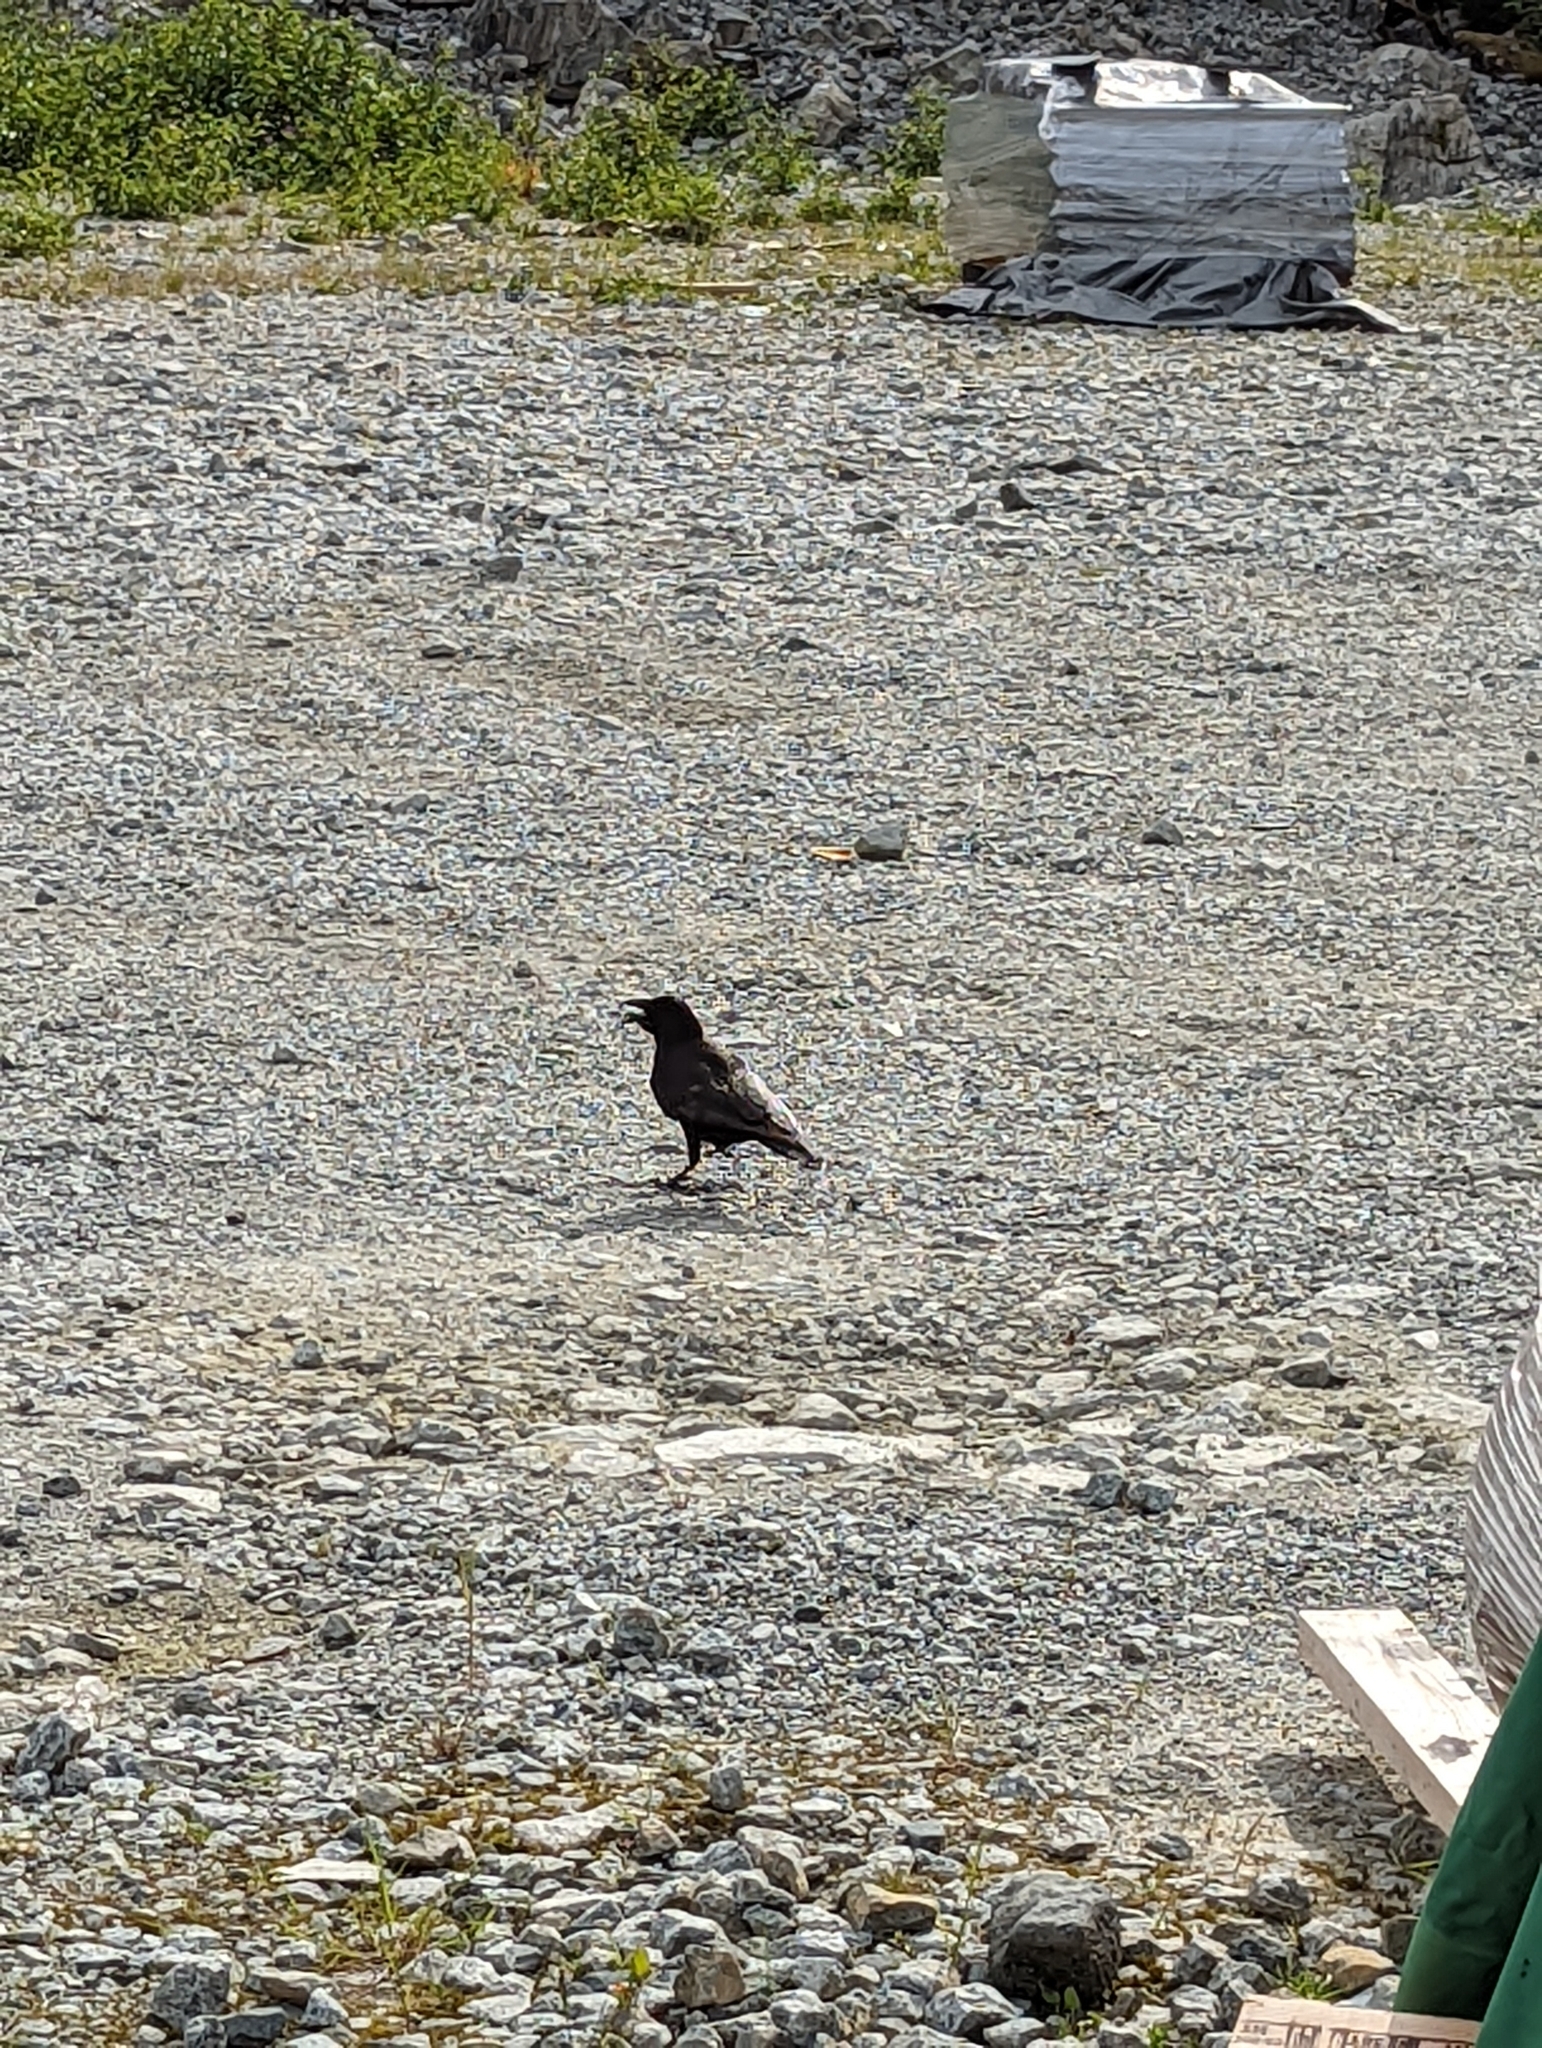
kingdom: Animalia
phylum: Chordata
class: Aves
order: Passeriformes
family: Corvidae
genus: Corvus
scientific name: Corvus brachyrhynchos
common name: American crow
